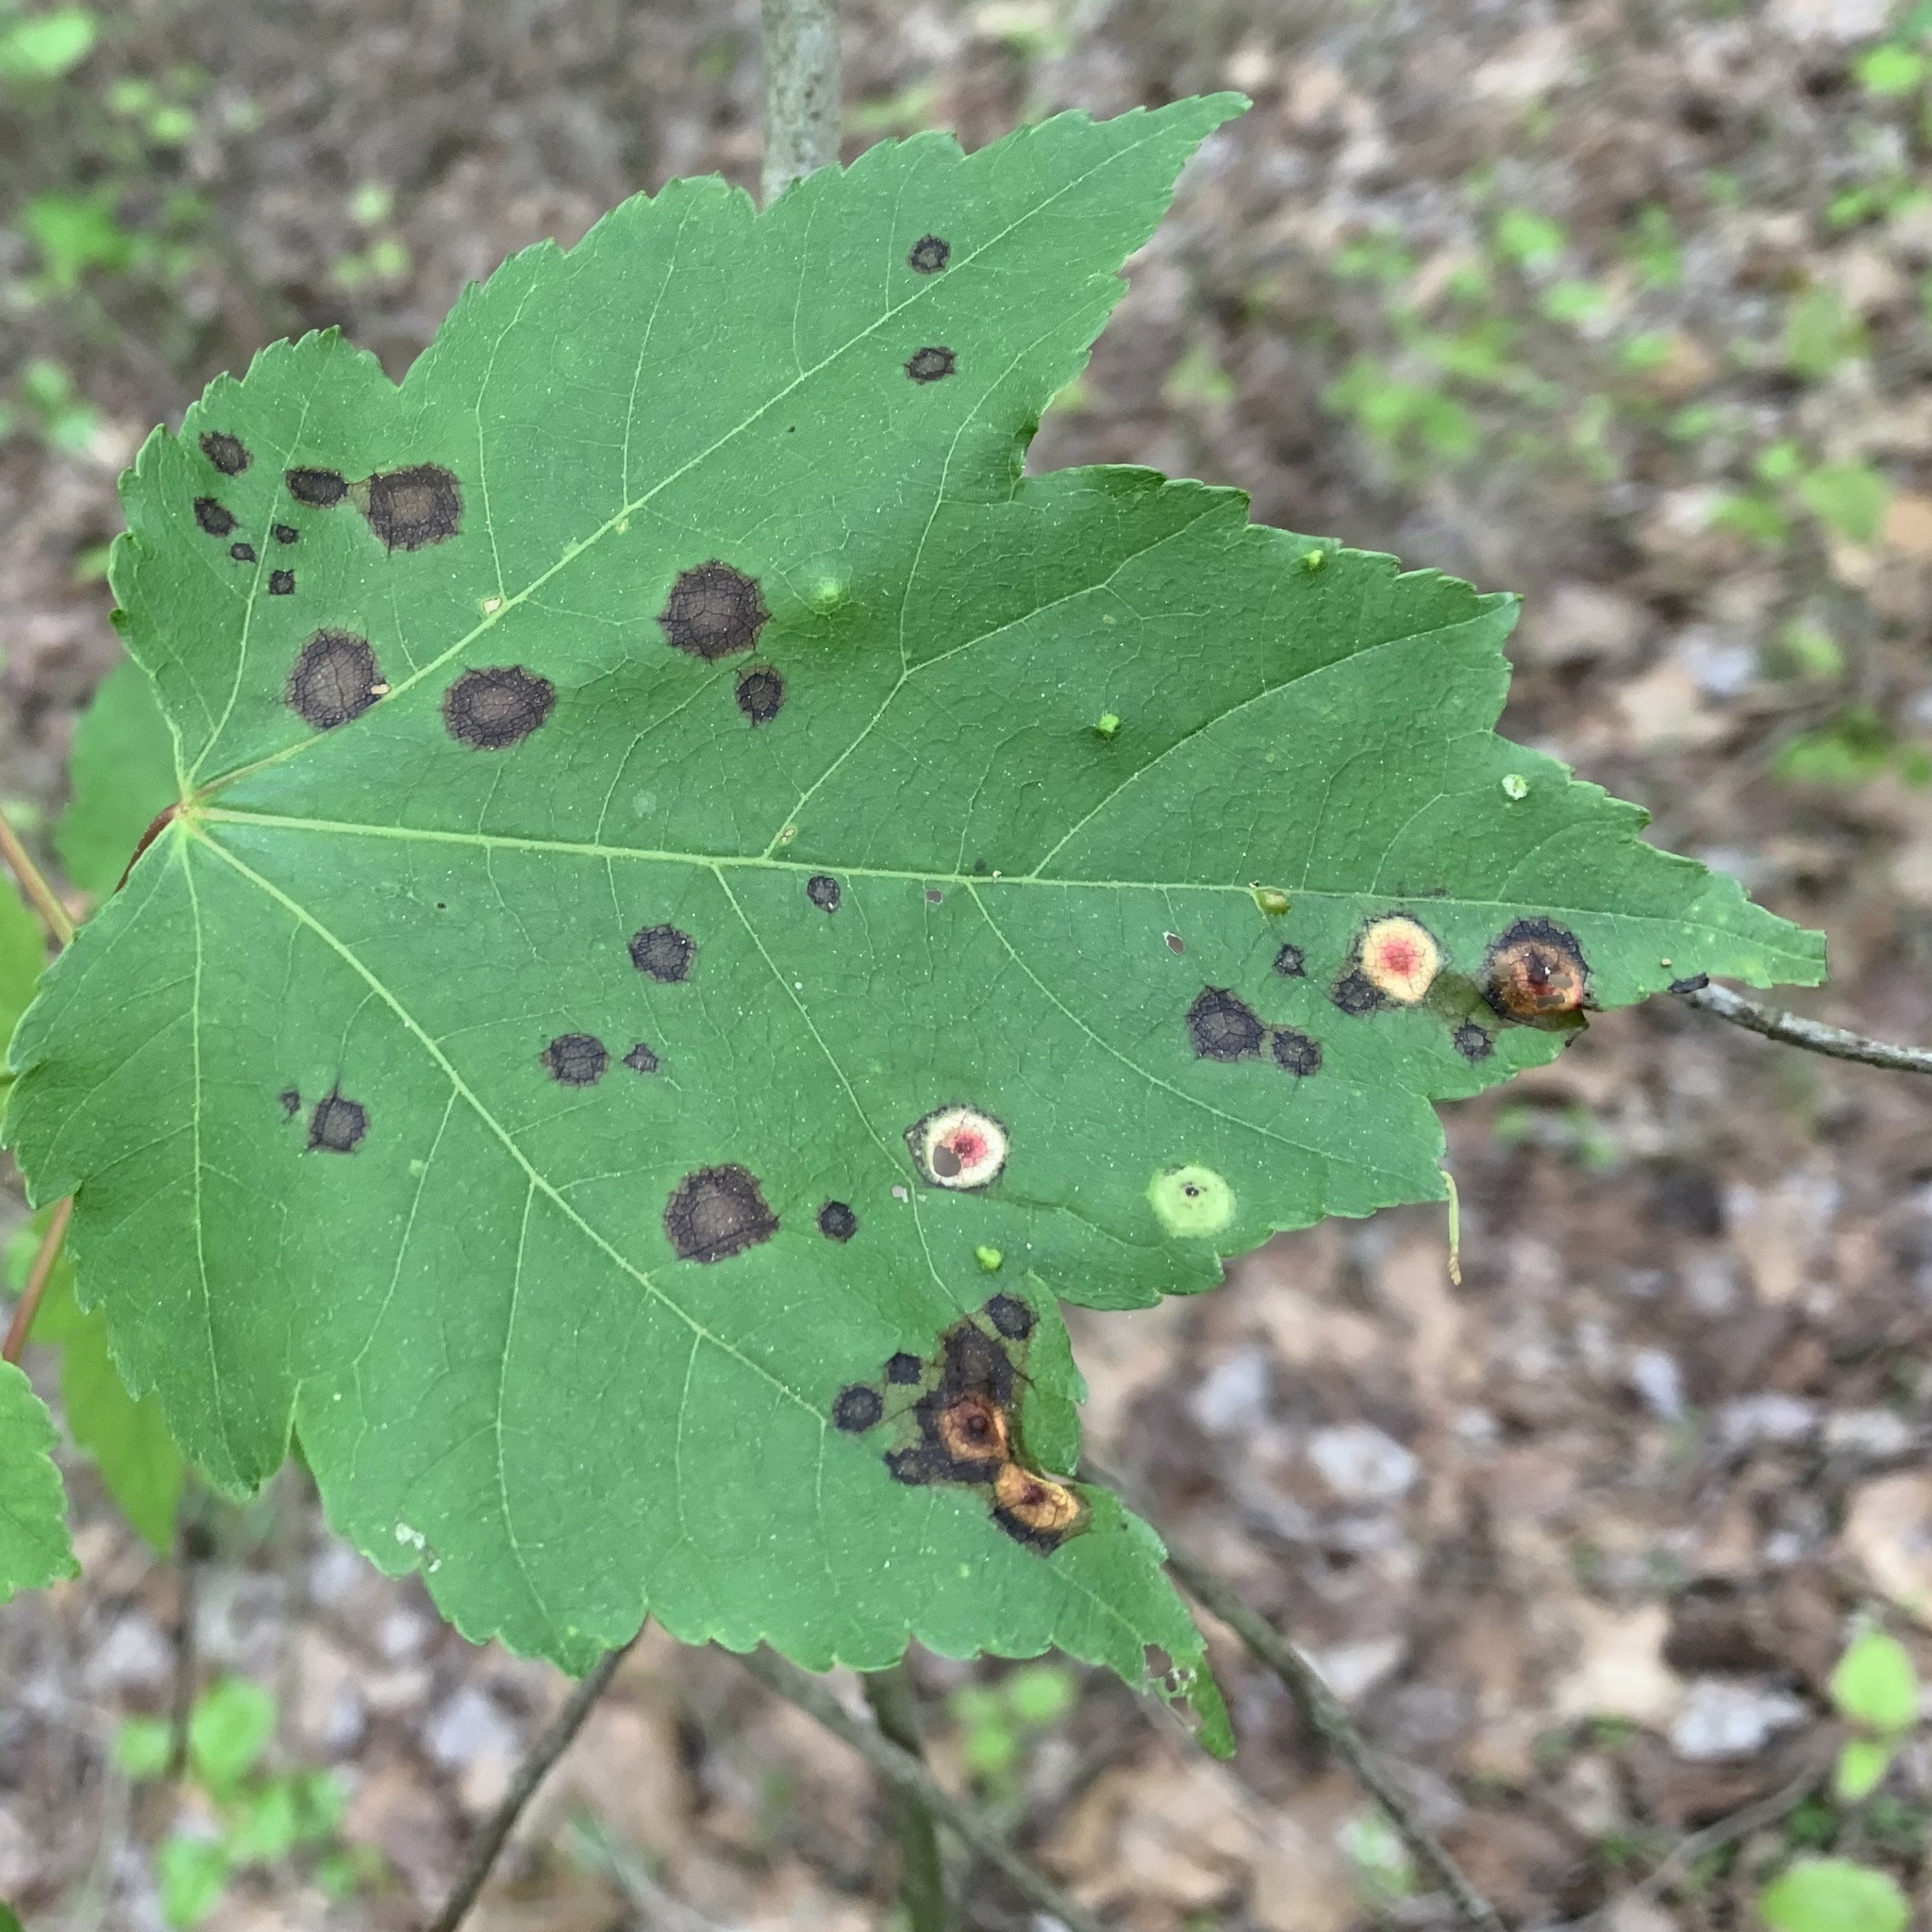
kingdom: Animalia
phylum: Arthropoda
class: Insecta
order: Diptera
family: Cecidomyiidae
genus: Acericecis
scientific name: Acericecis ocellaris
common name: Ocellate gall midge
